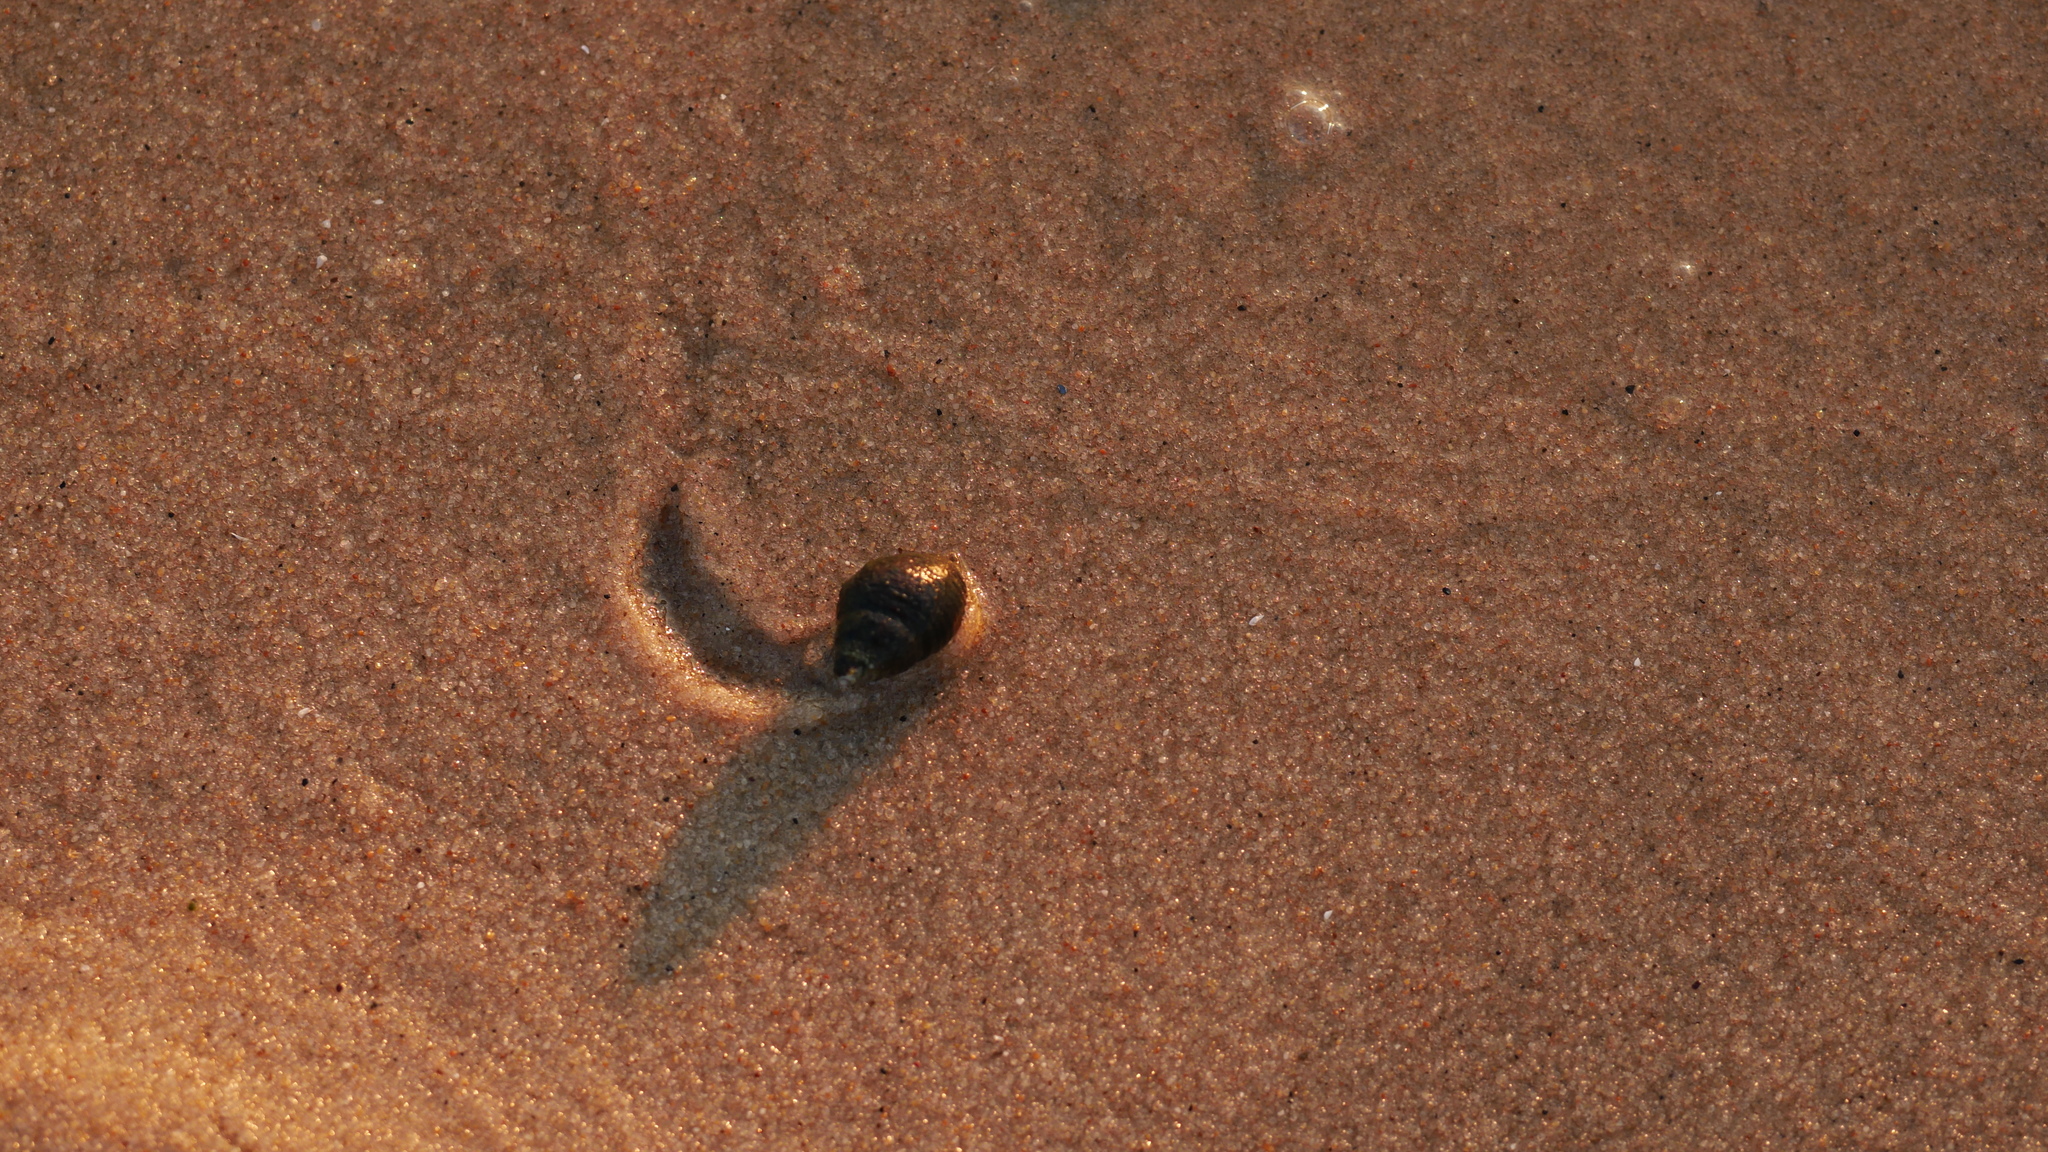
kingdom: Animalia
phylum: Mollusca
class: Gastropoda
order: Neogastropoda
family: Nassariidae
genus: Ilyanassa
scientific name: Ilyanassa obsoleta
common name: Eastern mudsnail
